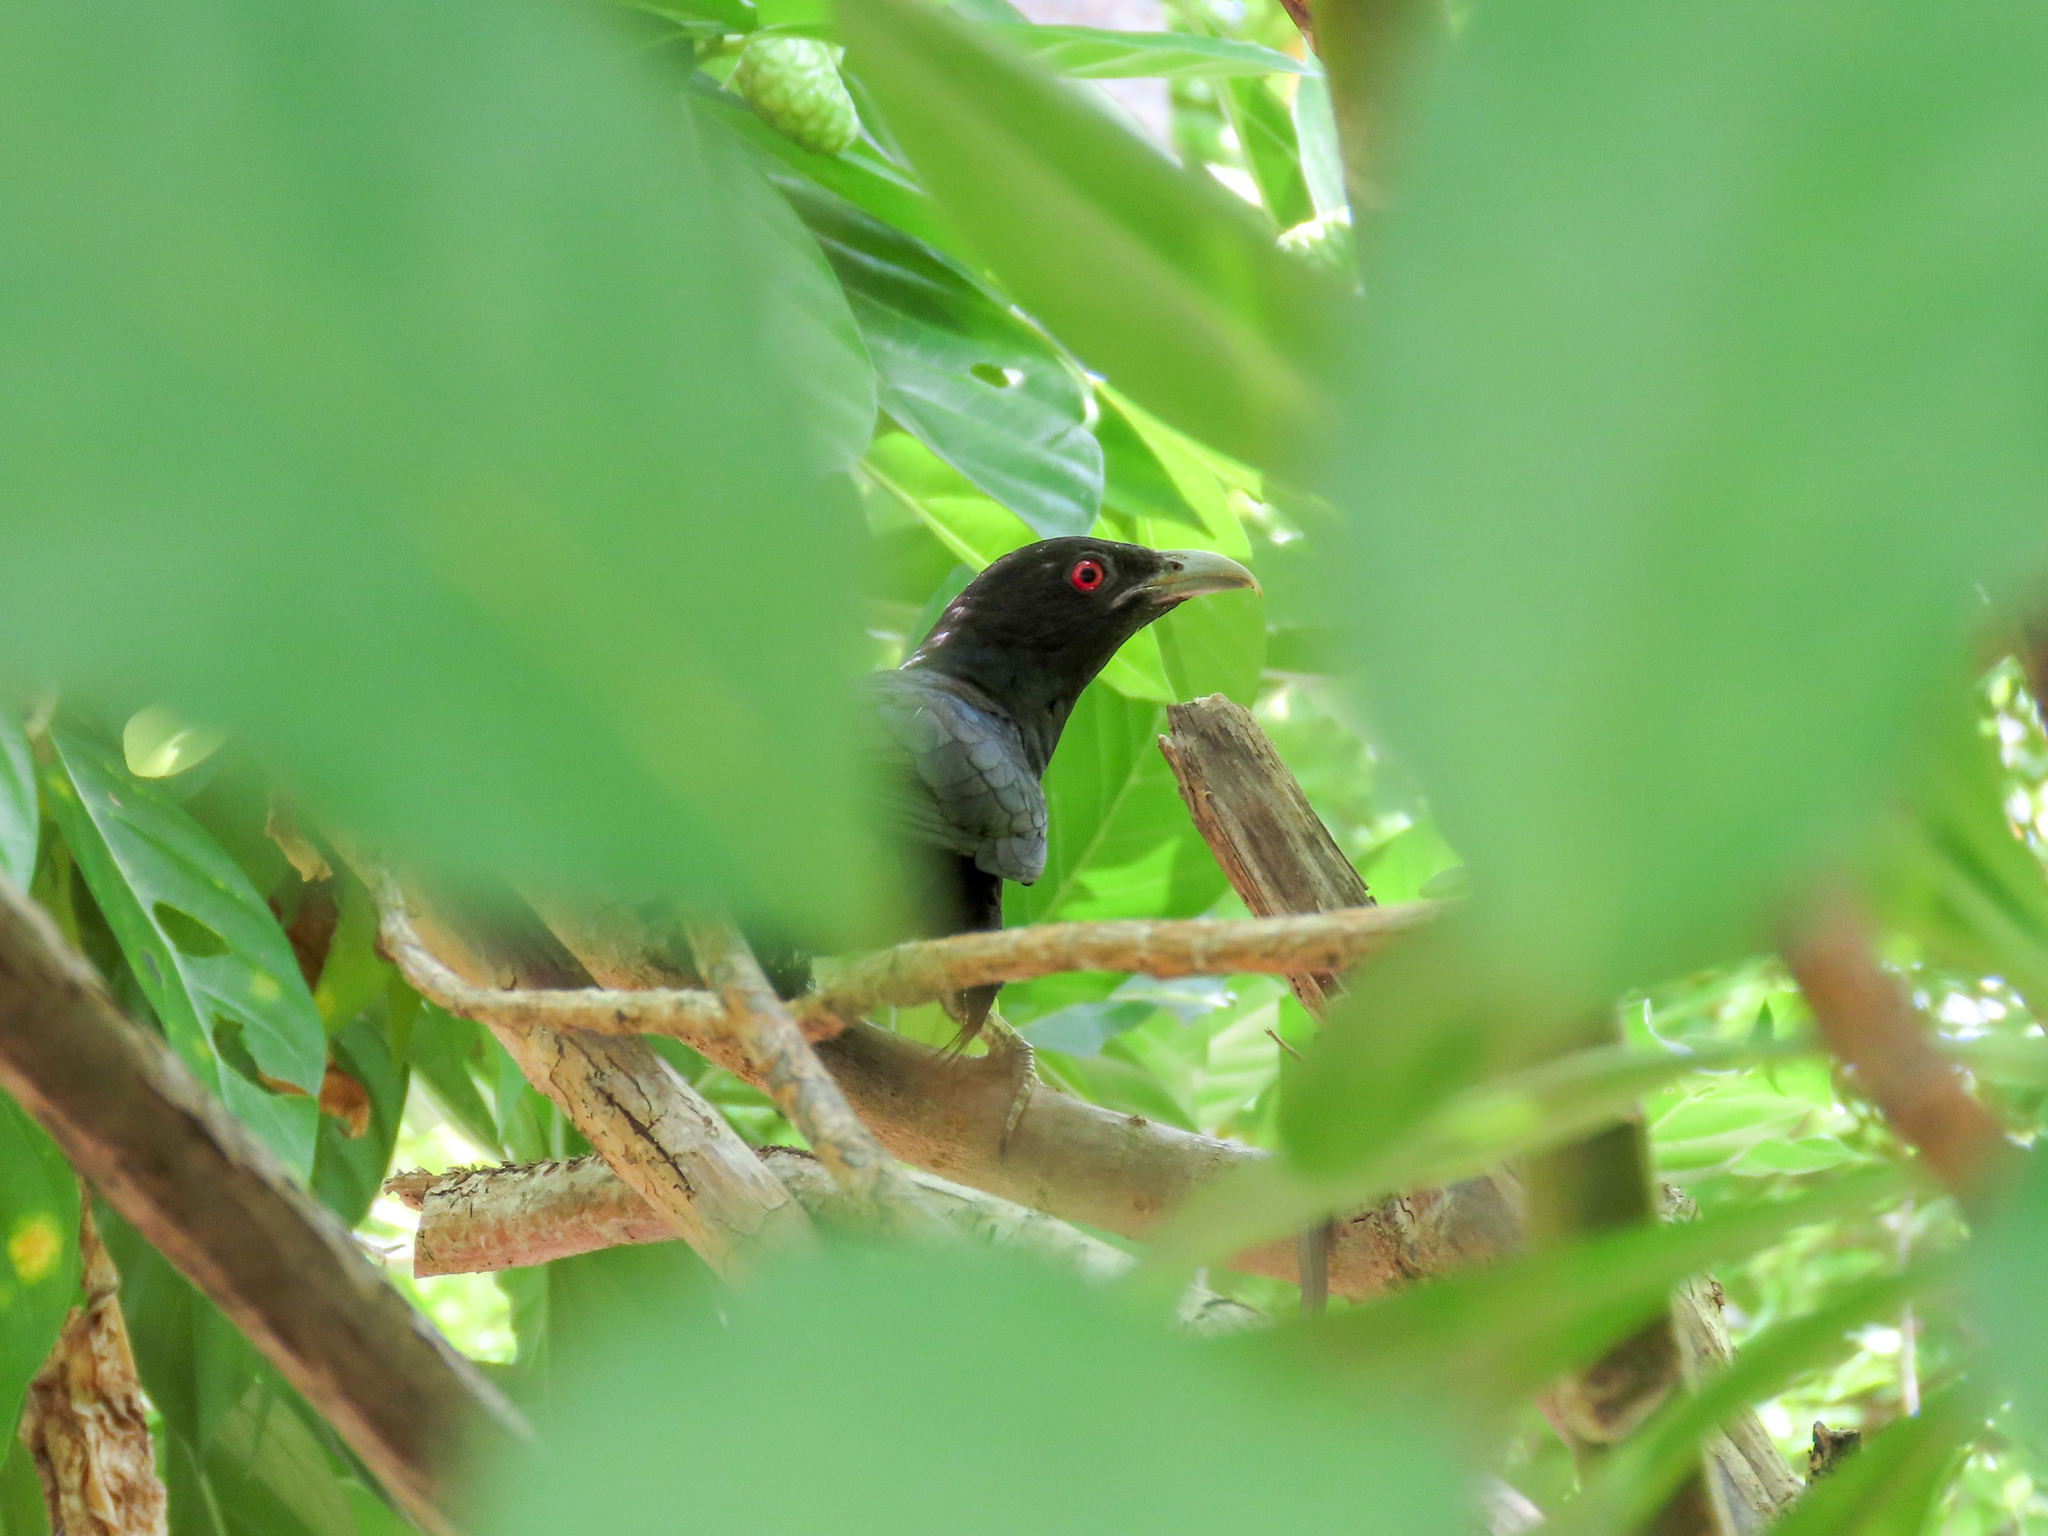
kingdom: Animalia
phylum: Chordata
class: Aves
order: Cuculiformes
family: Cuculidae
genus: Eudynamys
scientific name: Eudynamys scolopaceus
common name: Asian koel
